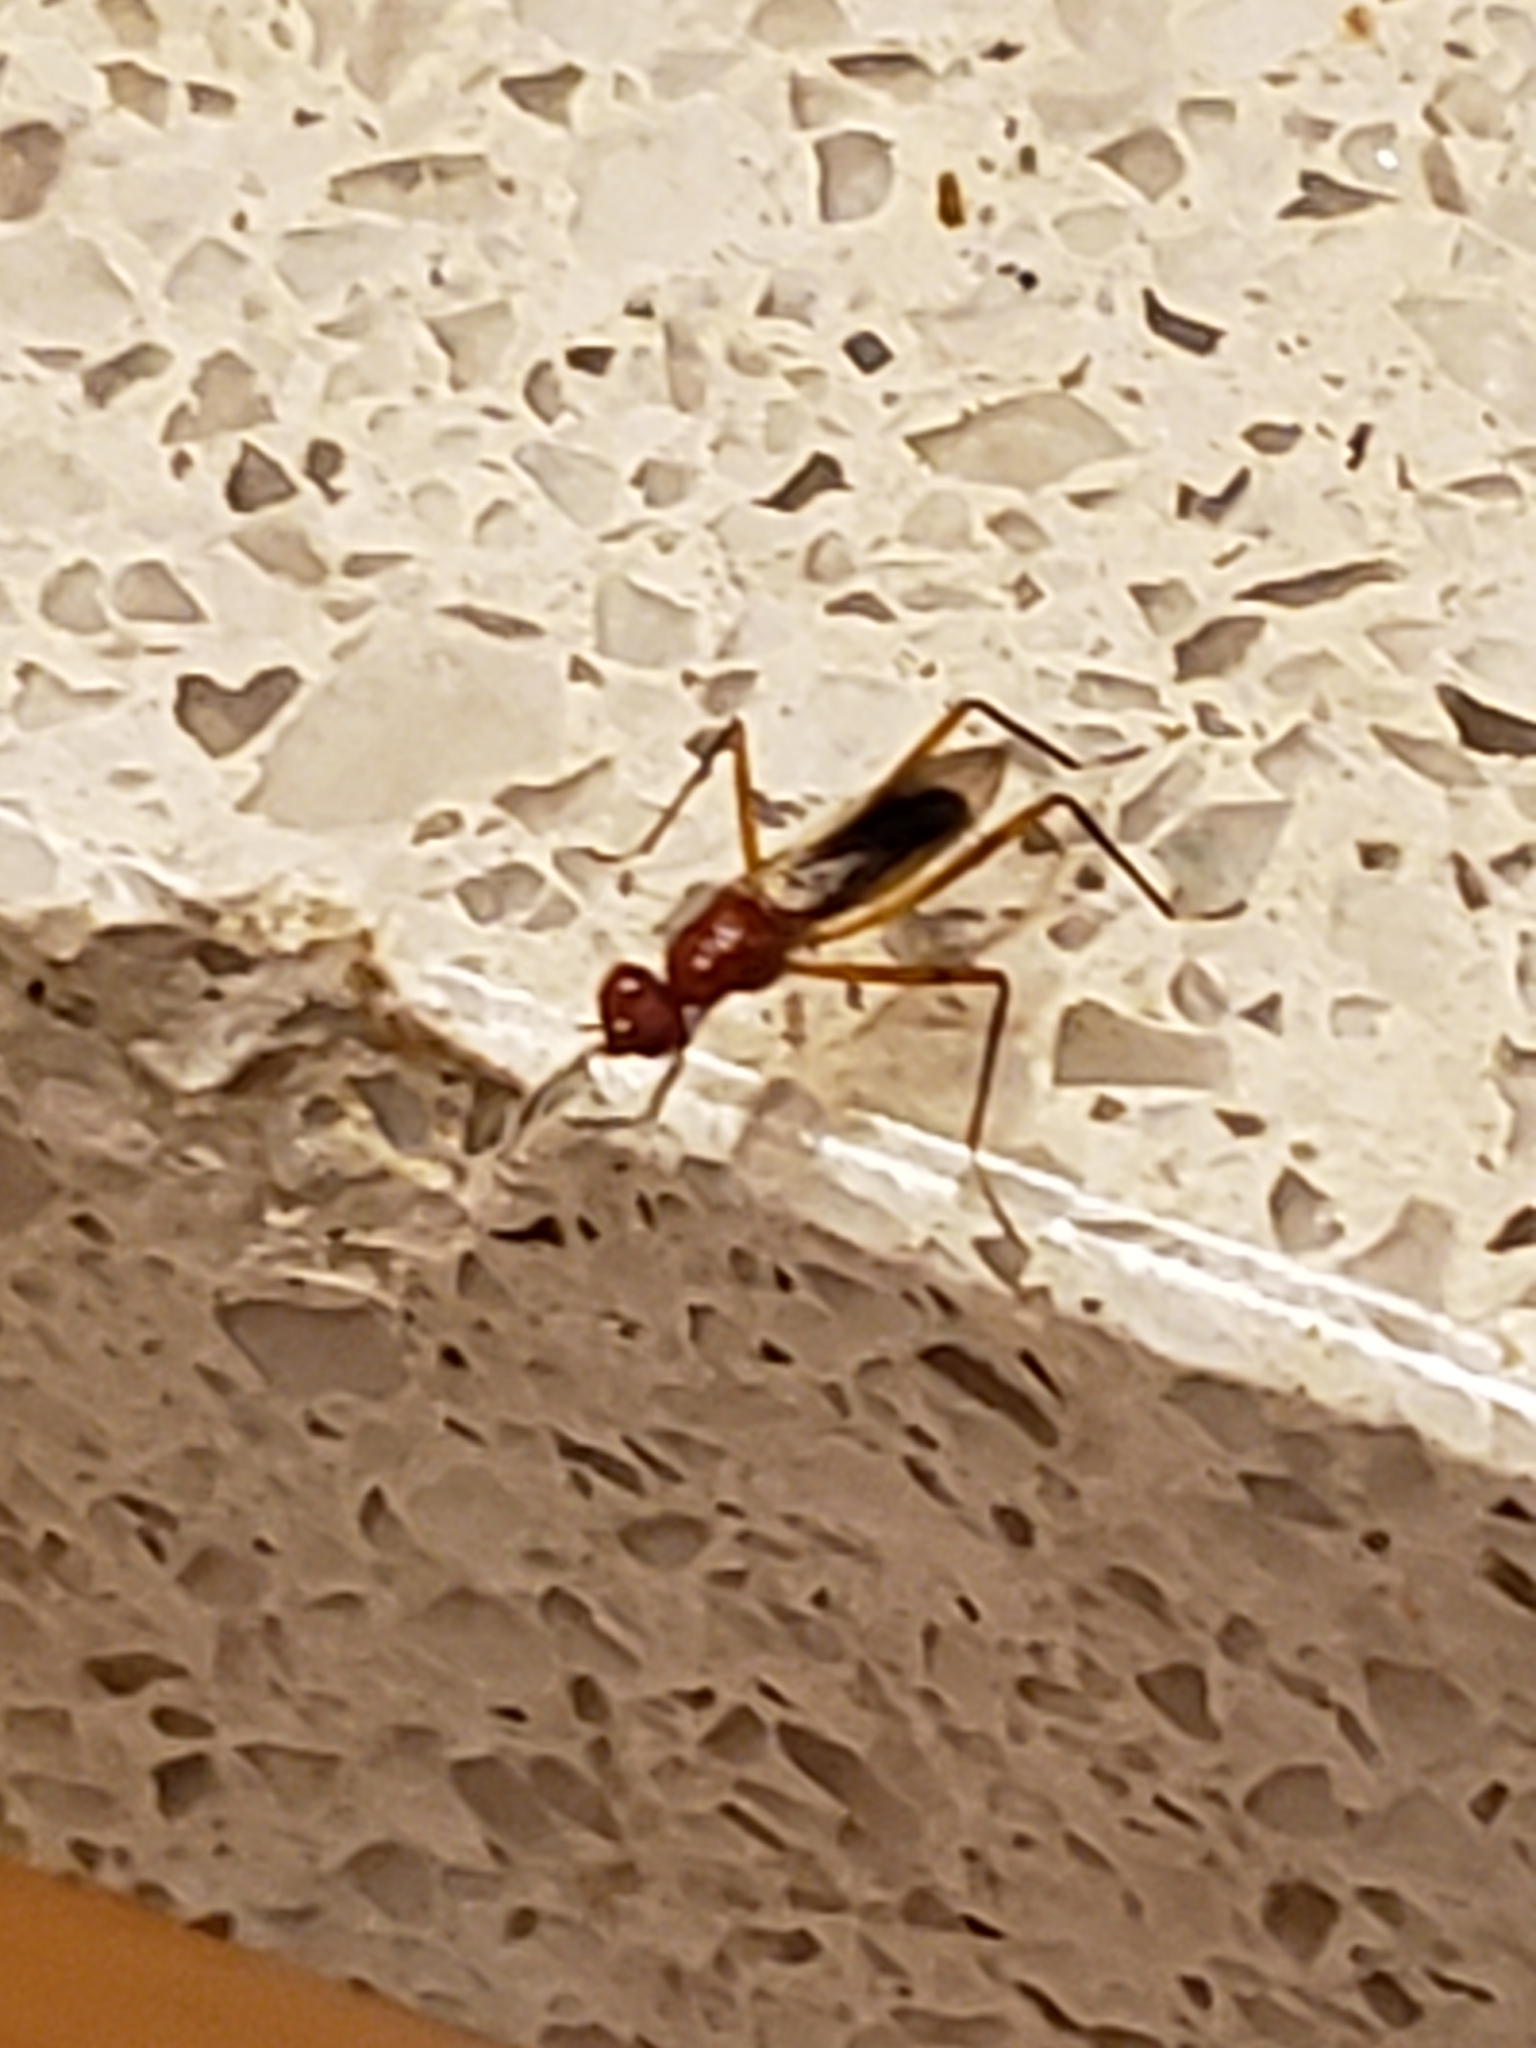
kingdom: Animalia
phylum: Arthropoda
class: Insecta
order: Diptera
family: Micropezidae
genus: Grallipeza
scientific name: Grallipeza nebulosa
